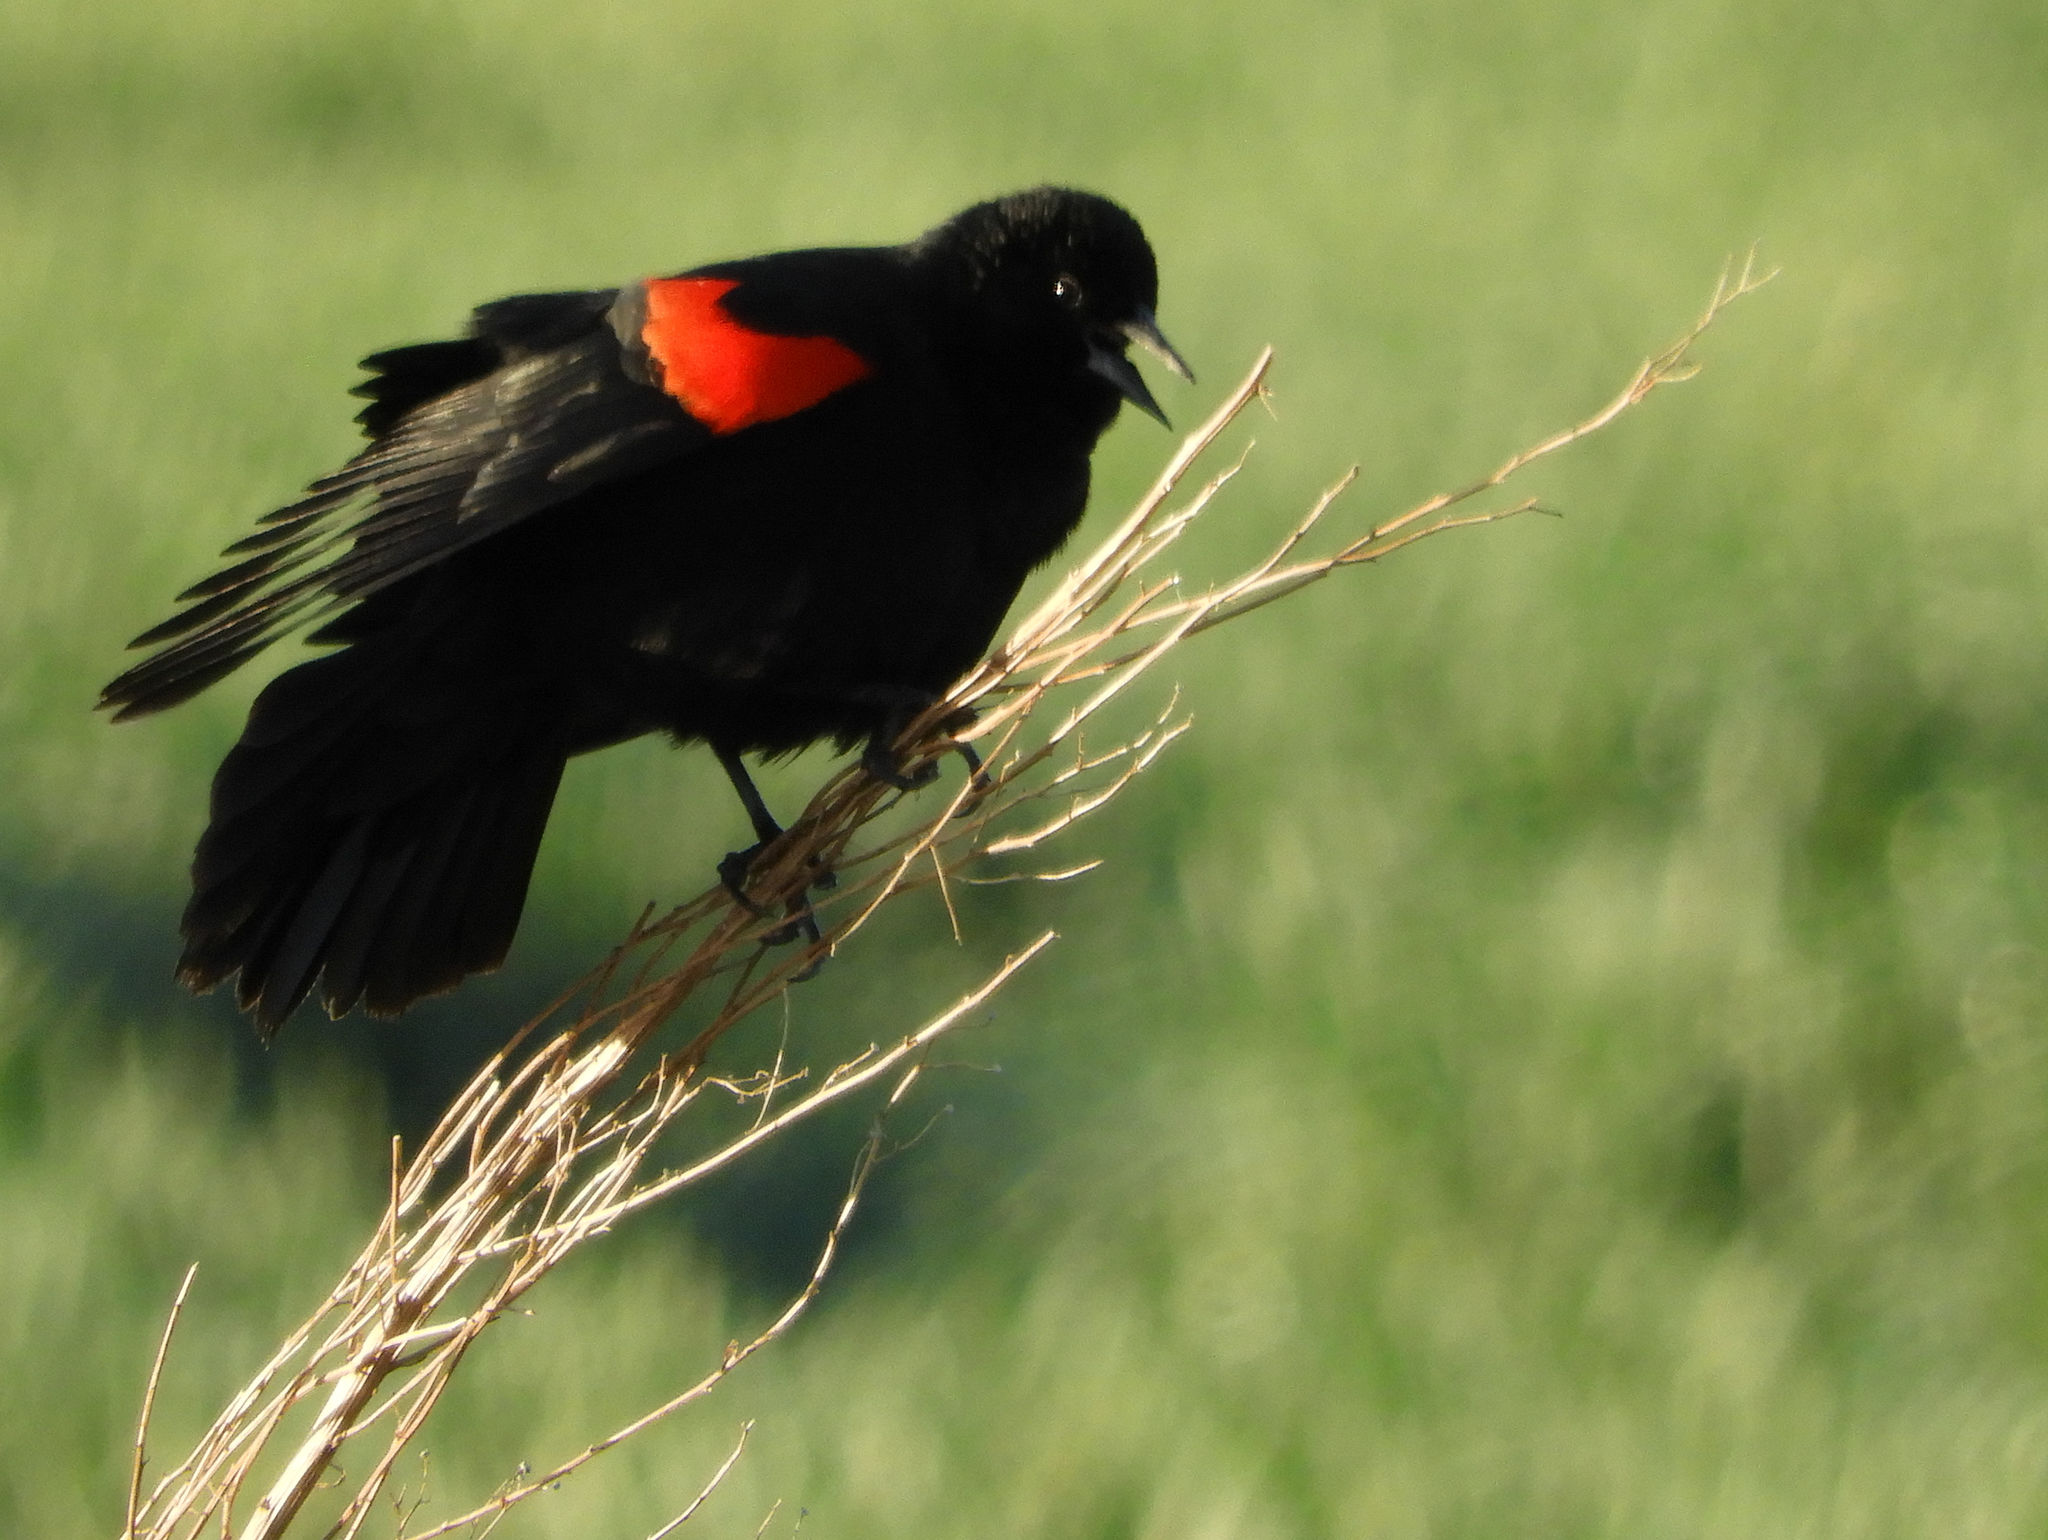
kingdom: Animalia
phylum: Chordata
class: Aves
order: Passeriformes
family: Icteridae
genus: Agelaius
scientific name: Agelaius phoeniceus
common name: Red-winged blackbird
